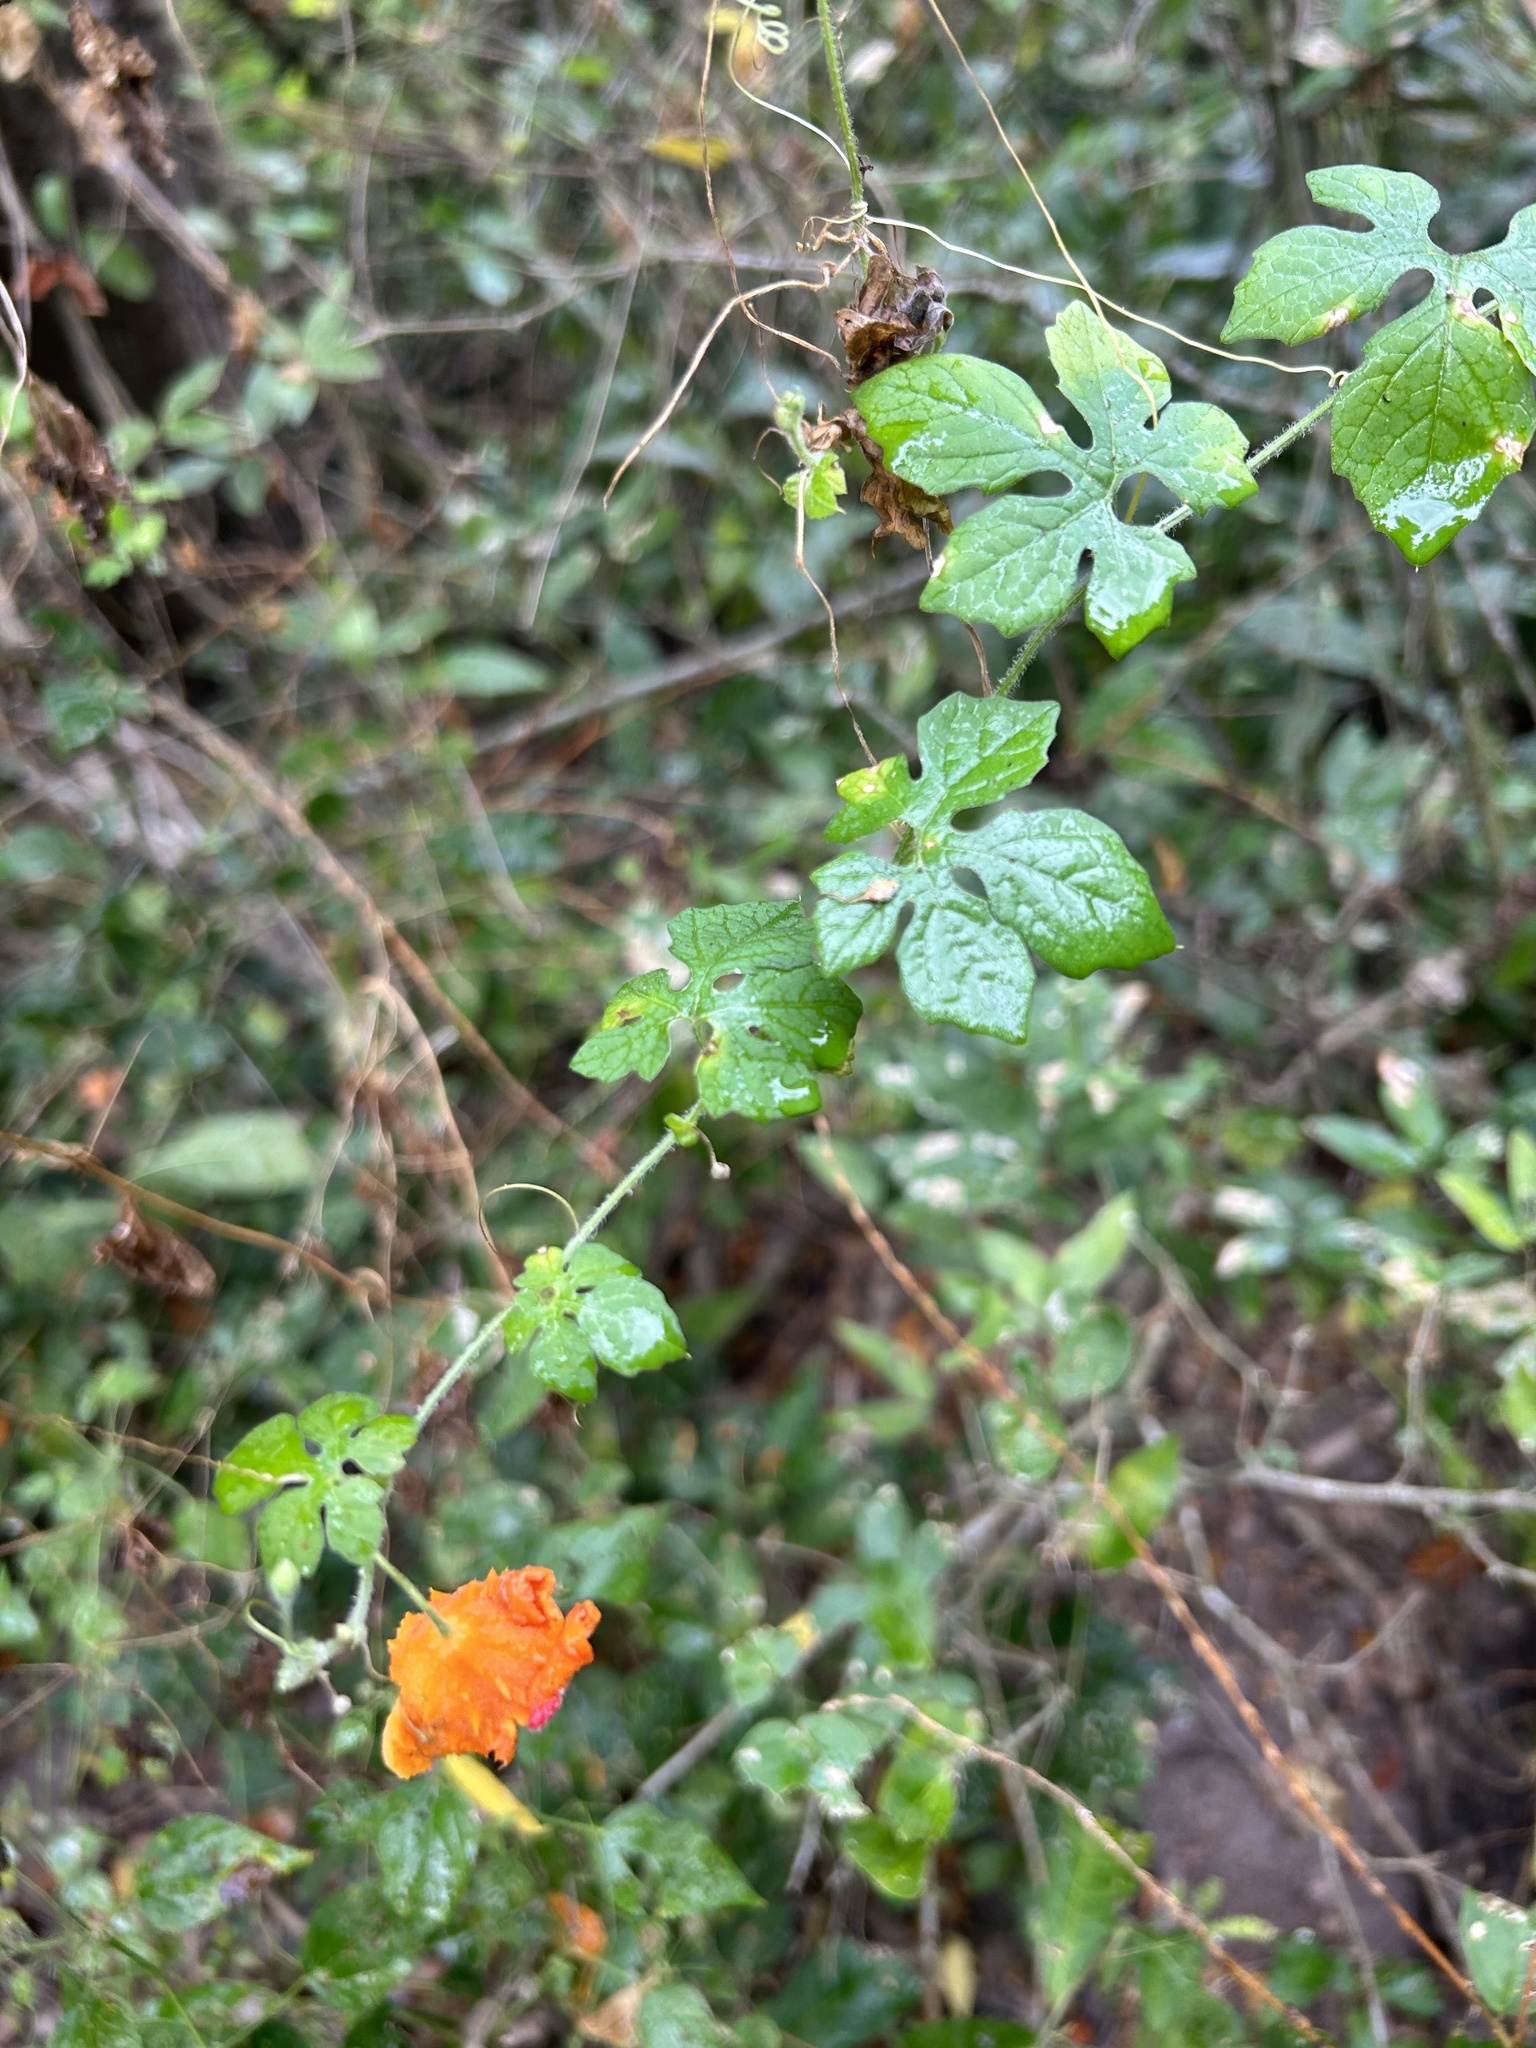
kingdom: Plantae
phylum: Tracheophyta
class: Magnoliopsida
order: Cucurbitales
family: Cucurbitaceae
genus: Momordica
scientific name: Momordica charantia
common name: Balsampear
